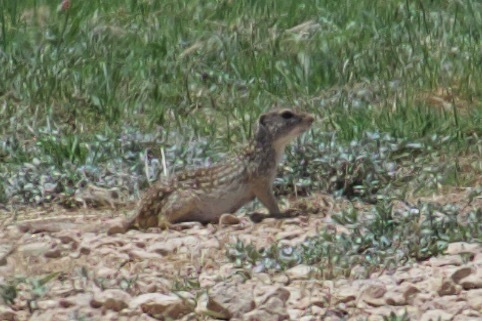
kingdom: Animalia
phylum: Chordata
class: Mammalia
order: Rodentia
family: Sciuridae
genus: Ictidomys
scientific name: Ictidomys parvidens
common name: Rio grande ground squirrel
